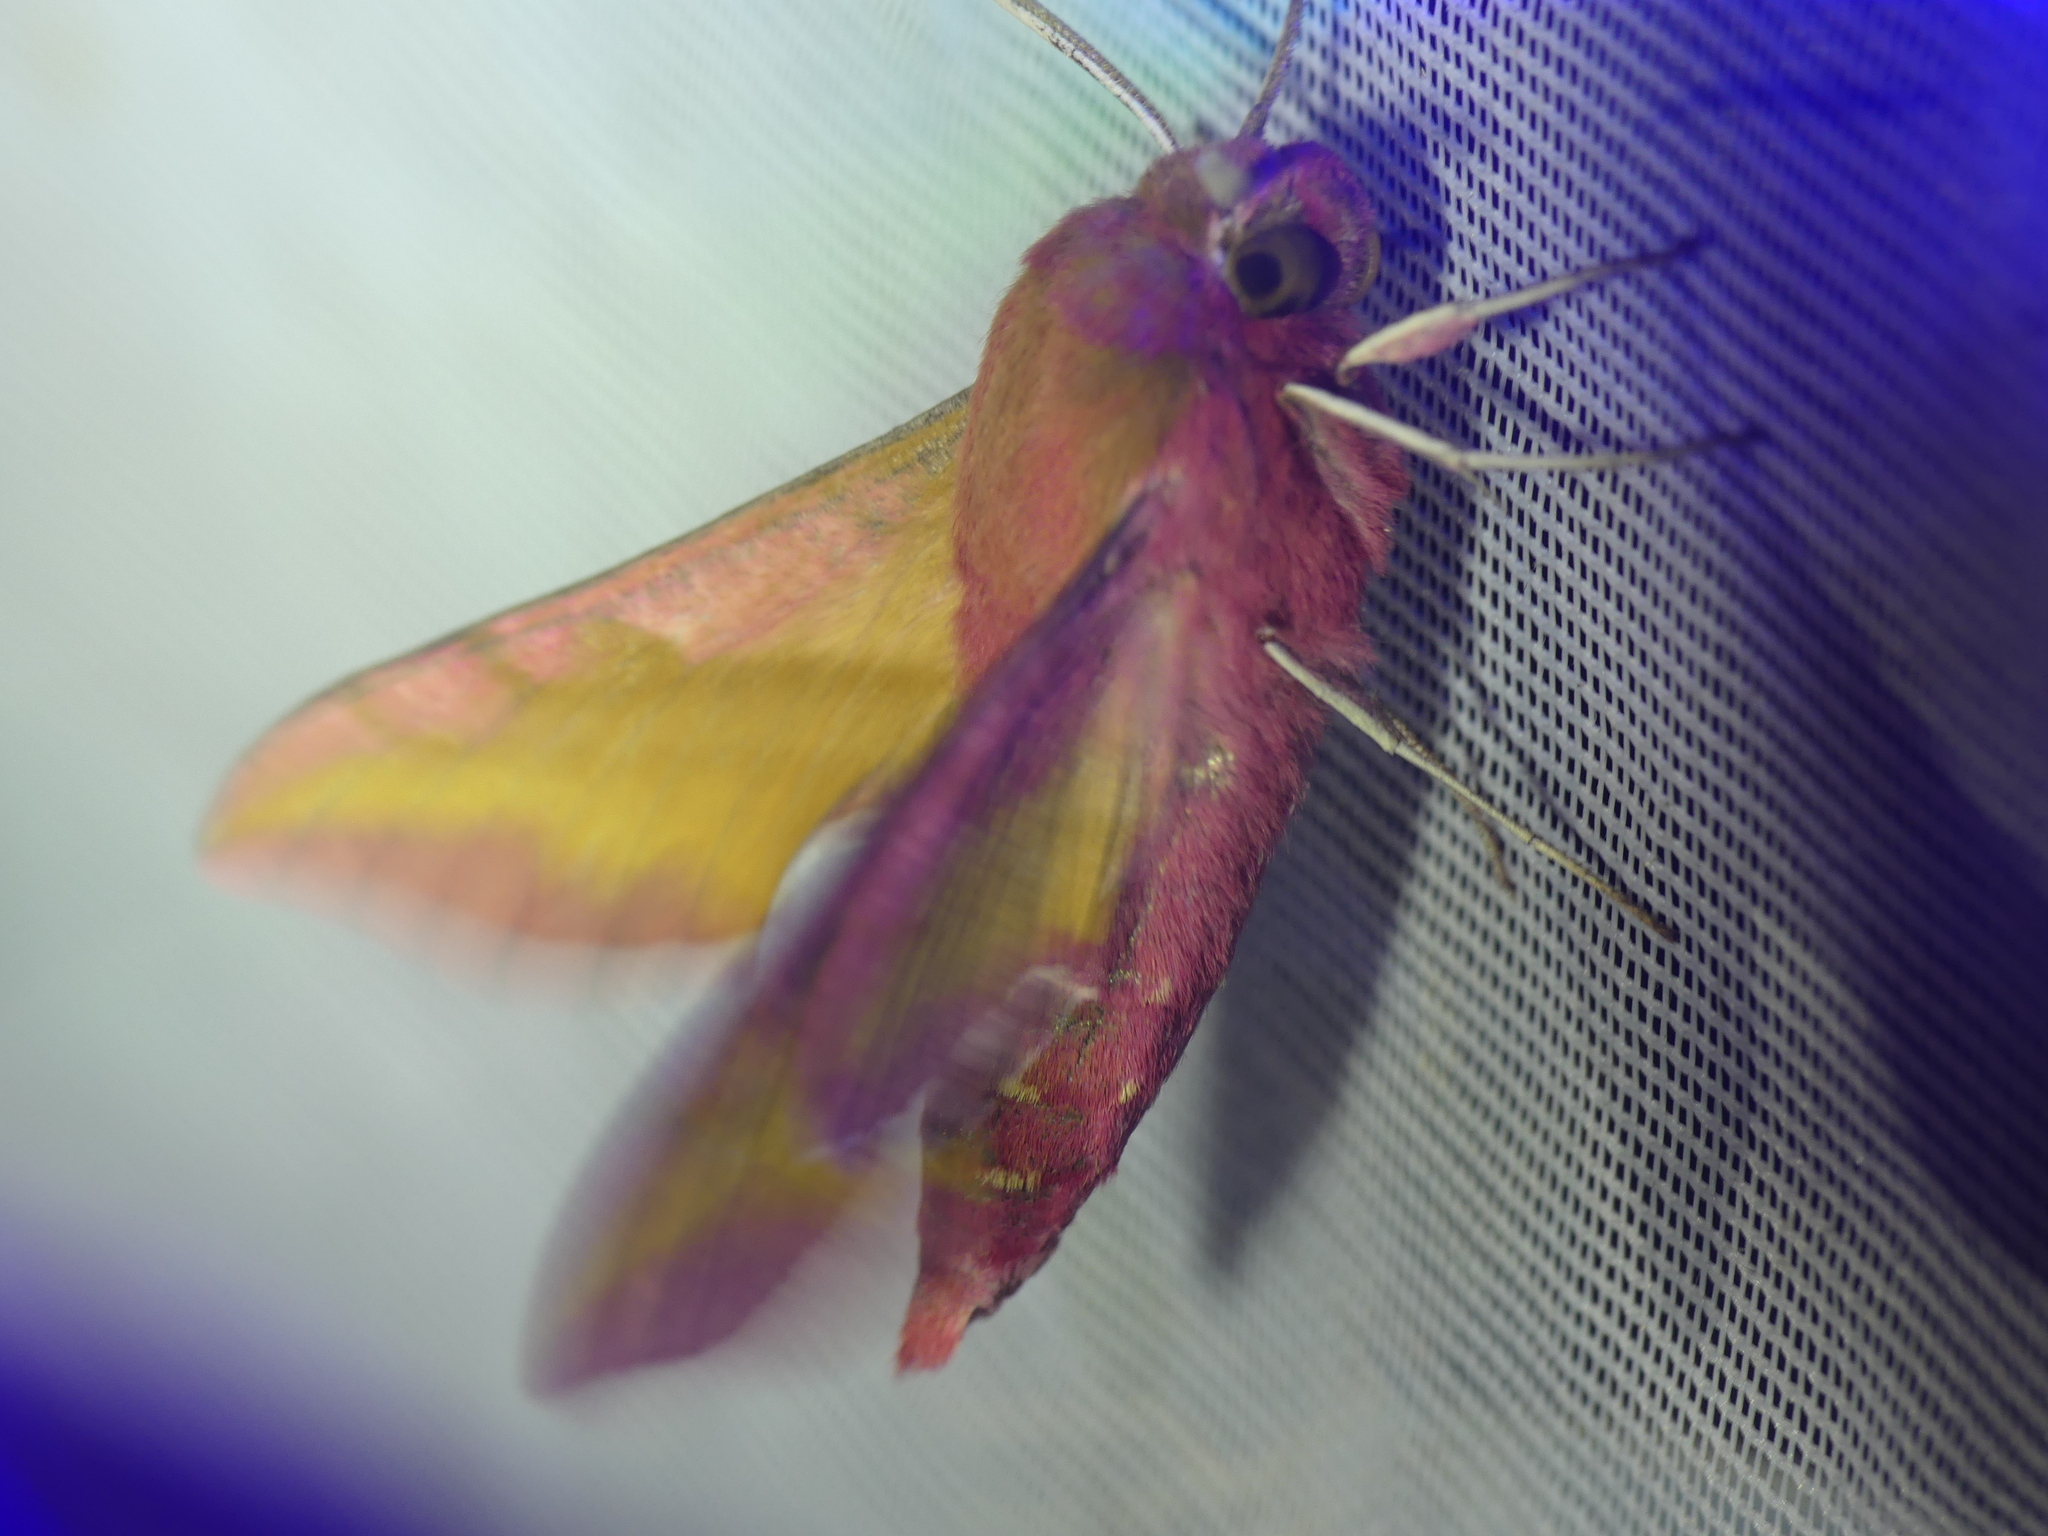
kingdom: Animalia
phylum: Arthropoda
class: Insecta
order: Lepidoptera
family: Sphingidae
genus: Deilephila
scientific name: Deilephila porcellus
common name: Small elephant hawk-moth
